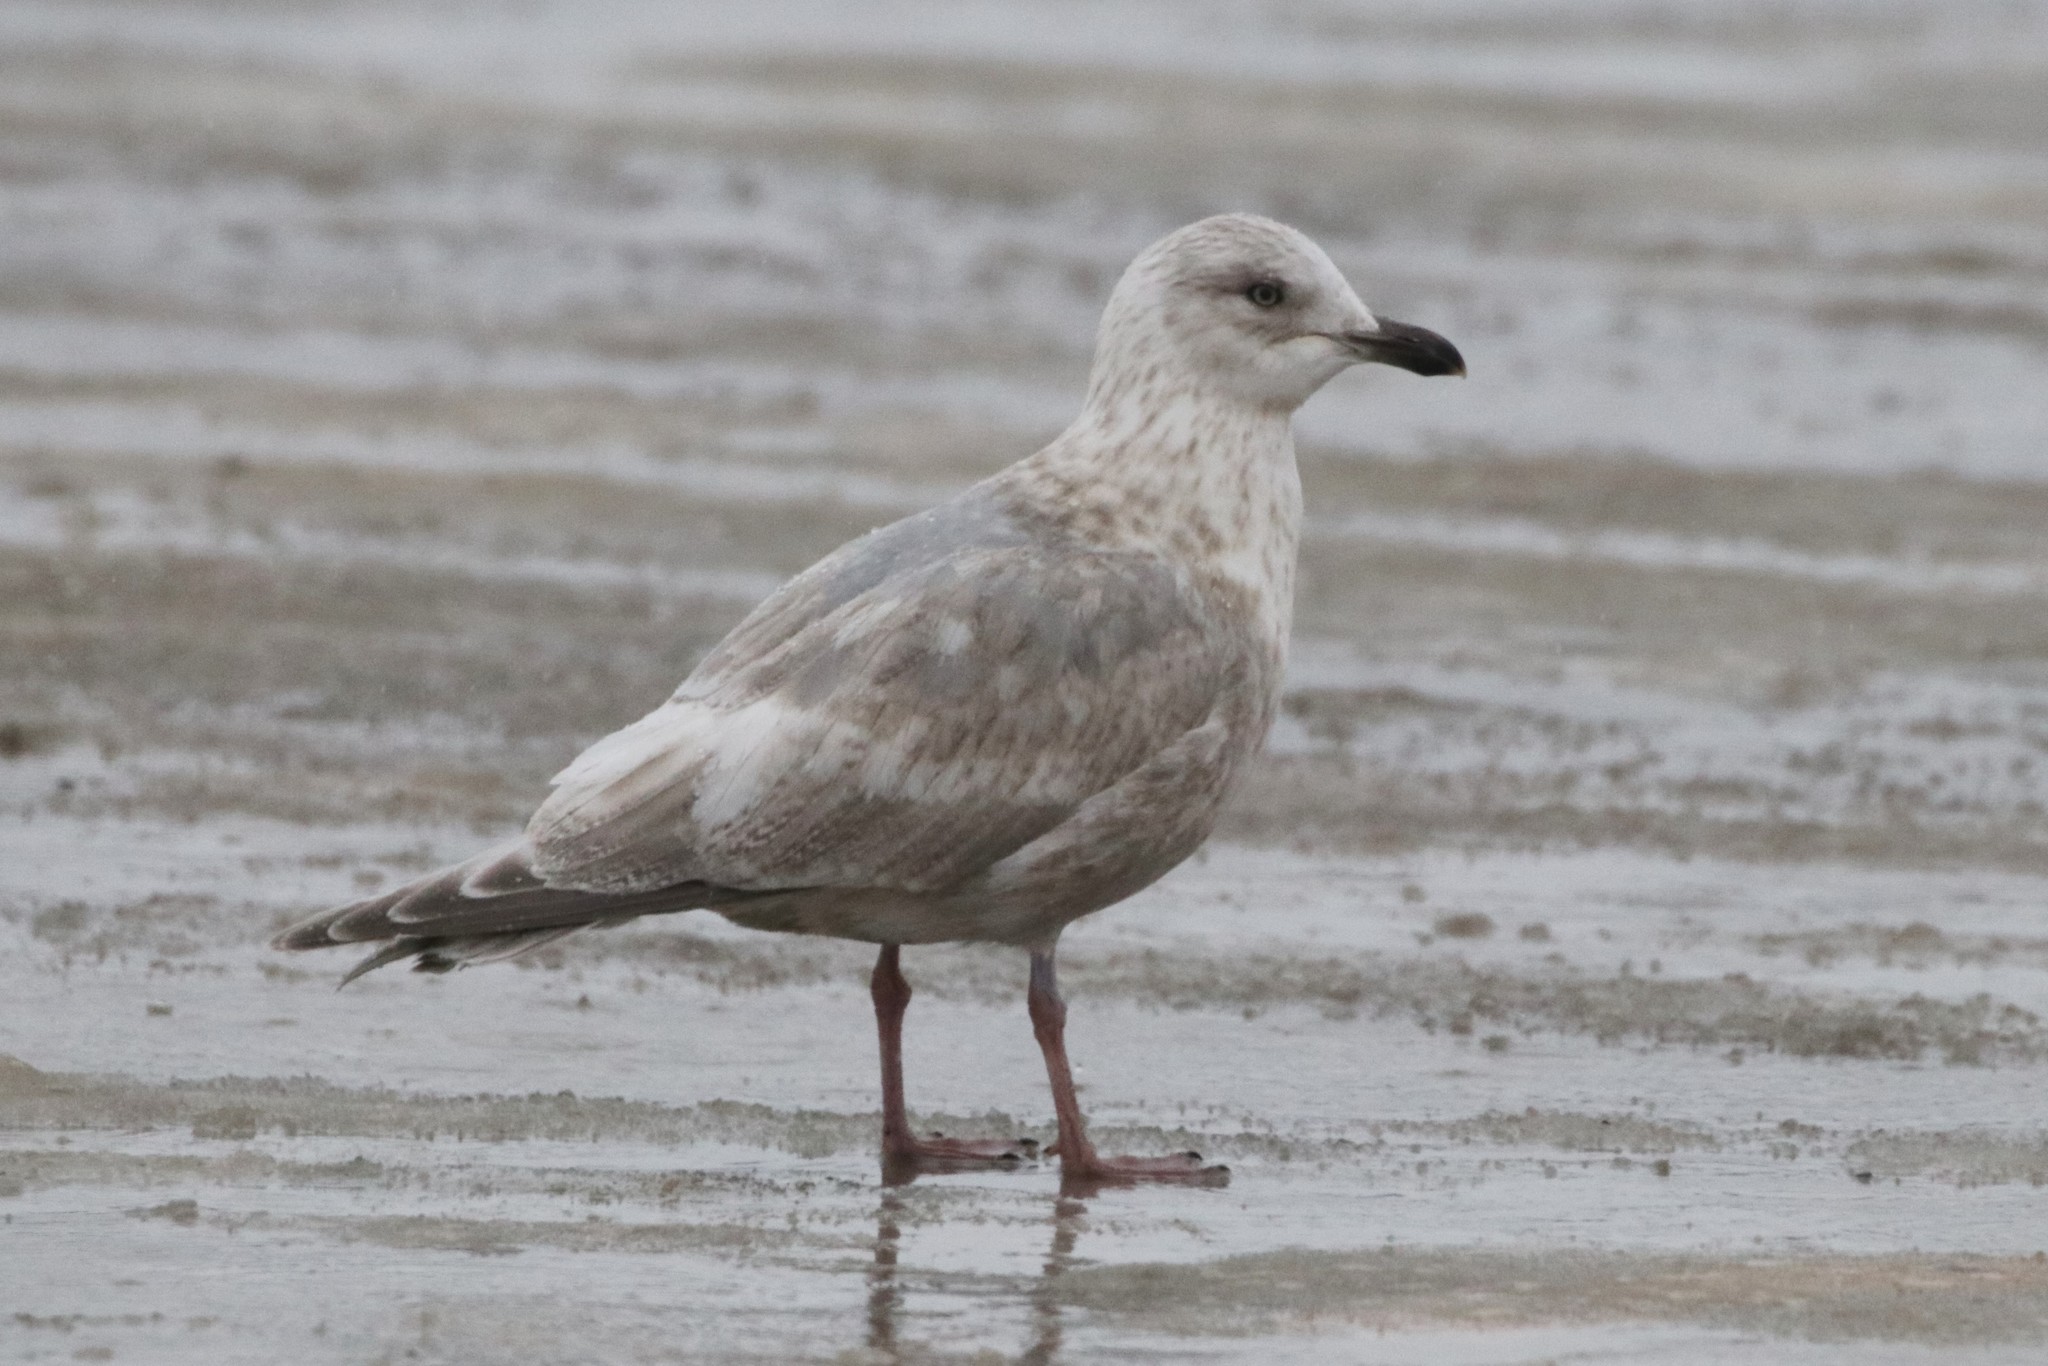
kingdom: Animalia
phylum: Chordata
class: Aves
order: Charadriiformes
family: Laridae
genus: Larus
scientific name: Larus glaucoides
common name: Iceland gull
